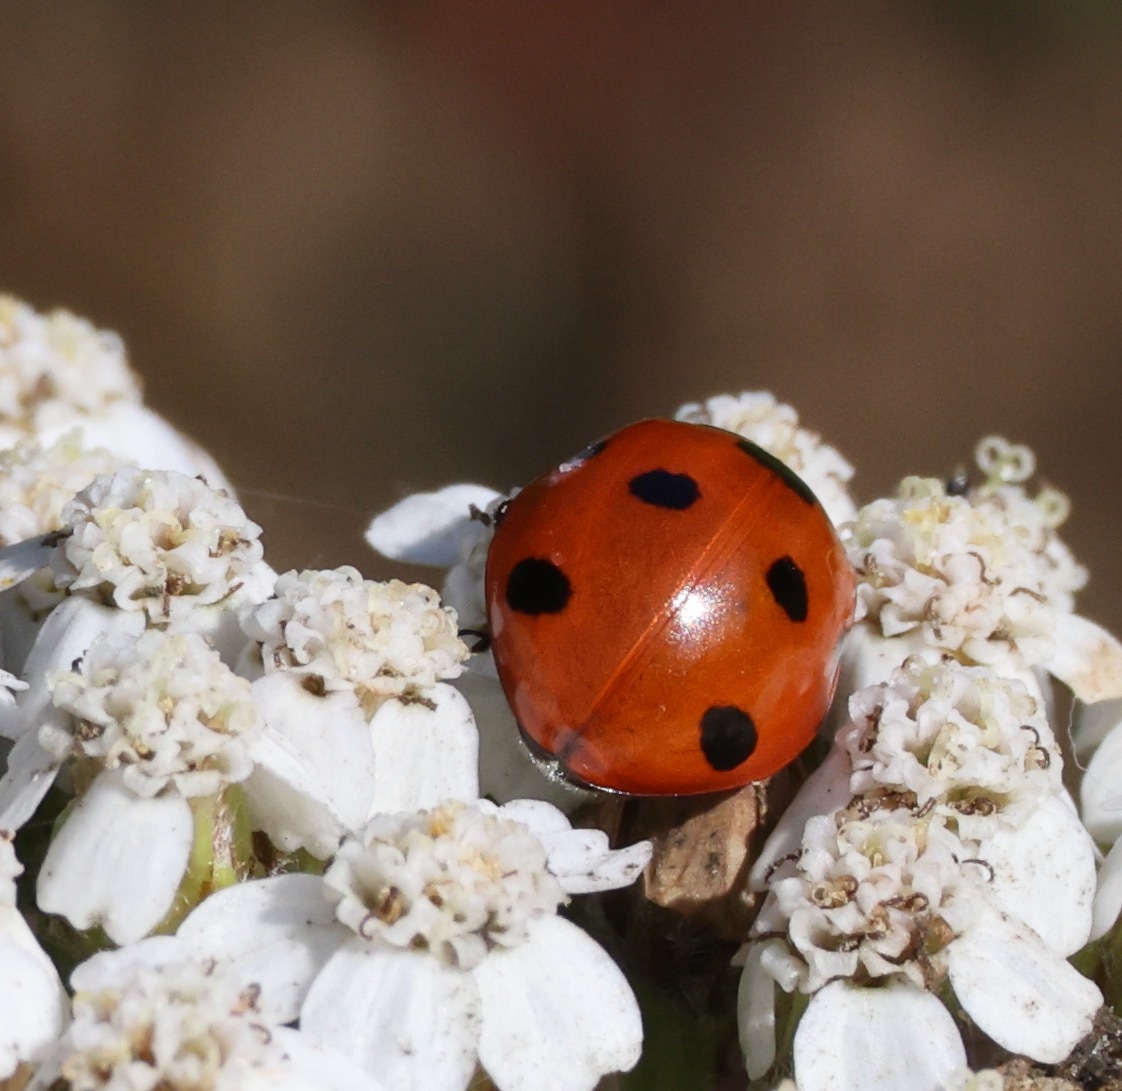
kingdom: Animalia
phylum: Arthropoda
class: Insecta
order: Coleoptera
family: Coccinellidae
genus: Coccinella
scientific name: Coccinella septempunctata
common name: Sevenspotted lady beetle
